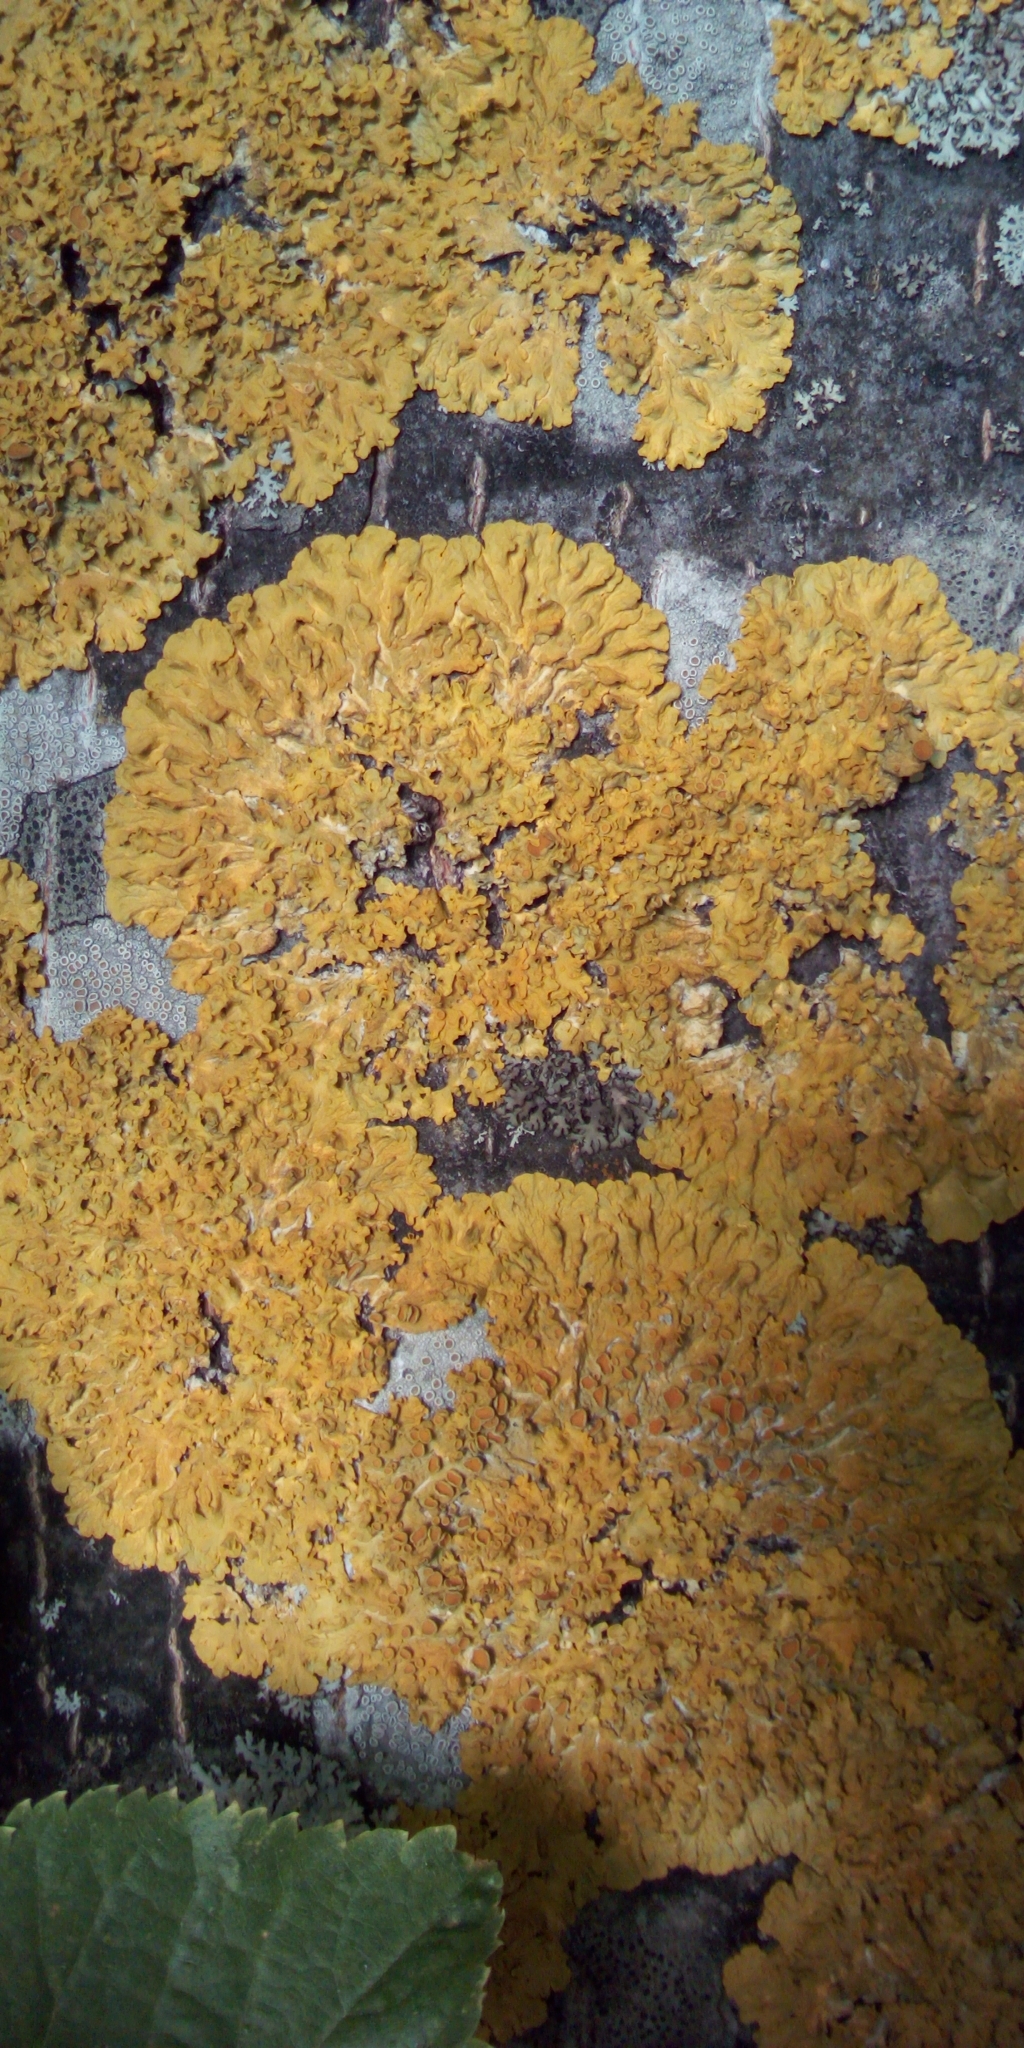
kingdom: Fungi
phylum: Ascomycota
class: Lecanoromycetes
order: Teloschistales
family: Teloschistaceae
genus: Xanthoria
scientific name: Xanthoria parietina
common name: Common orange lichen
